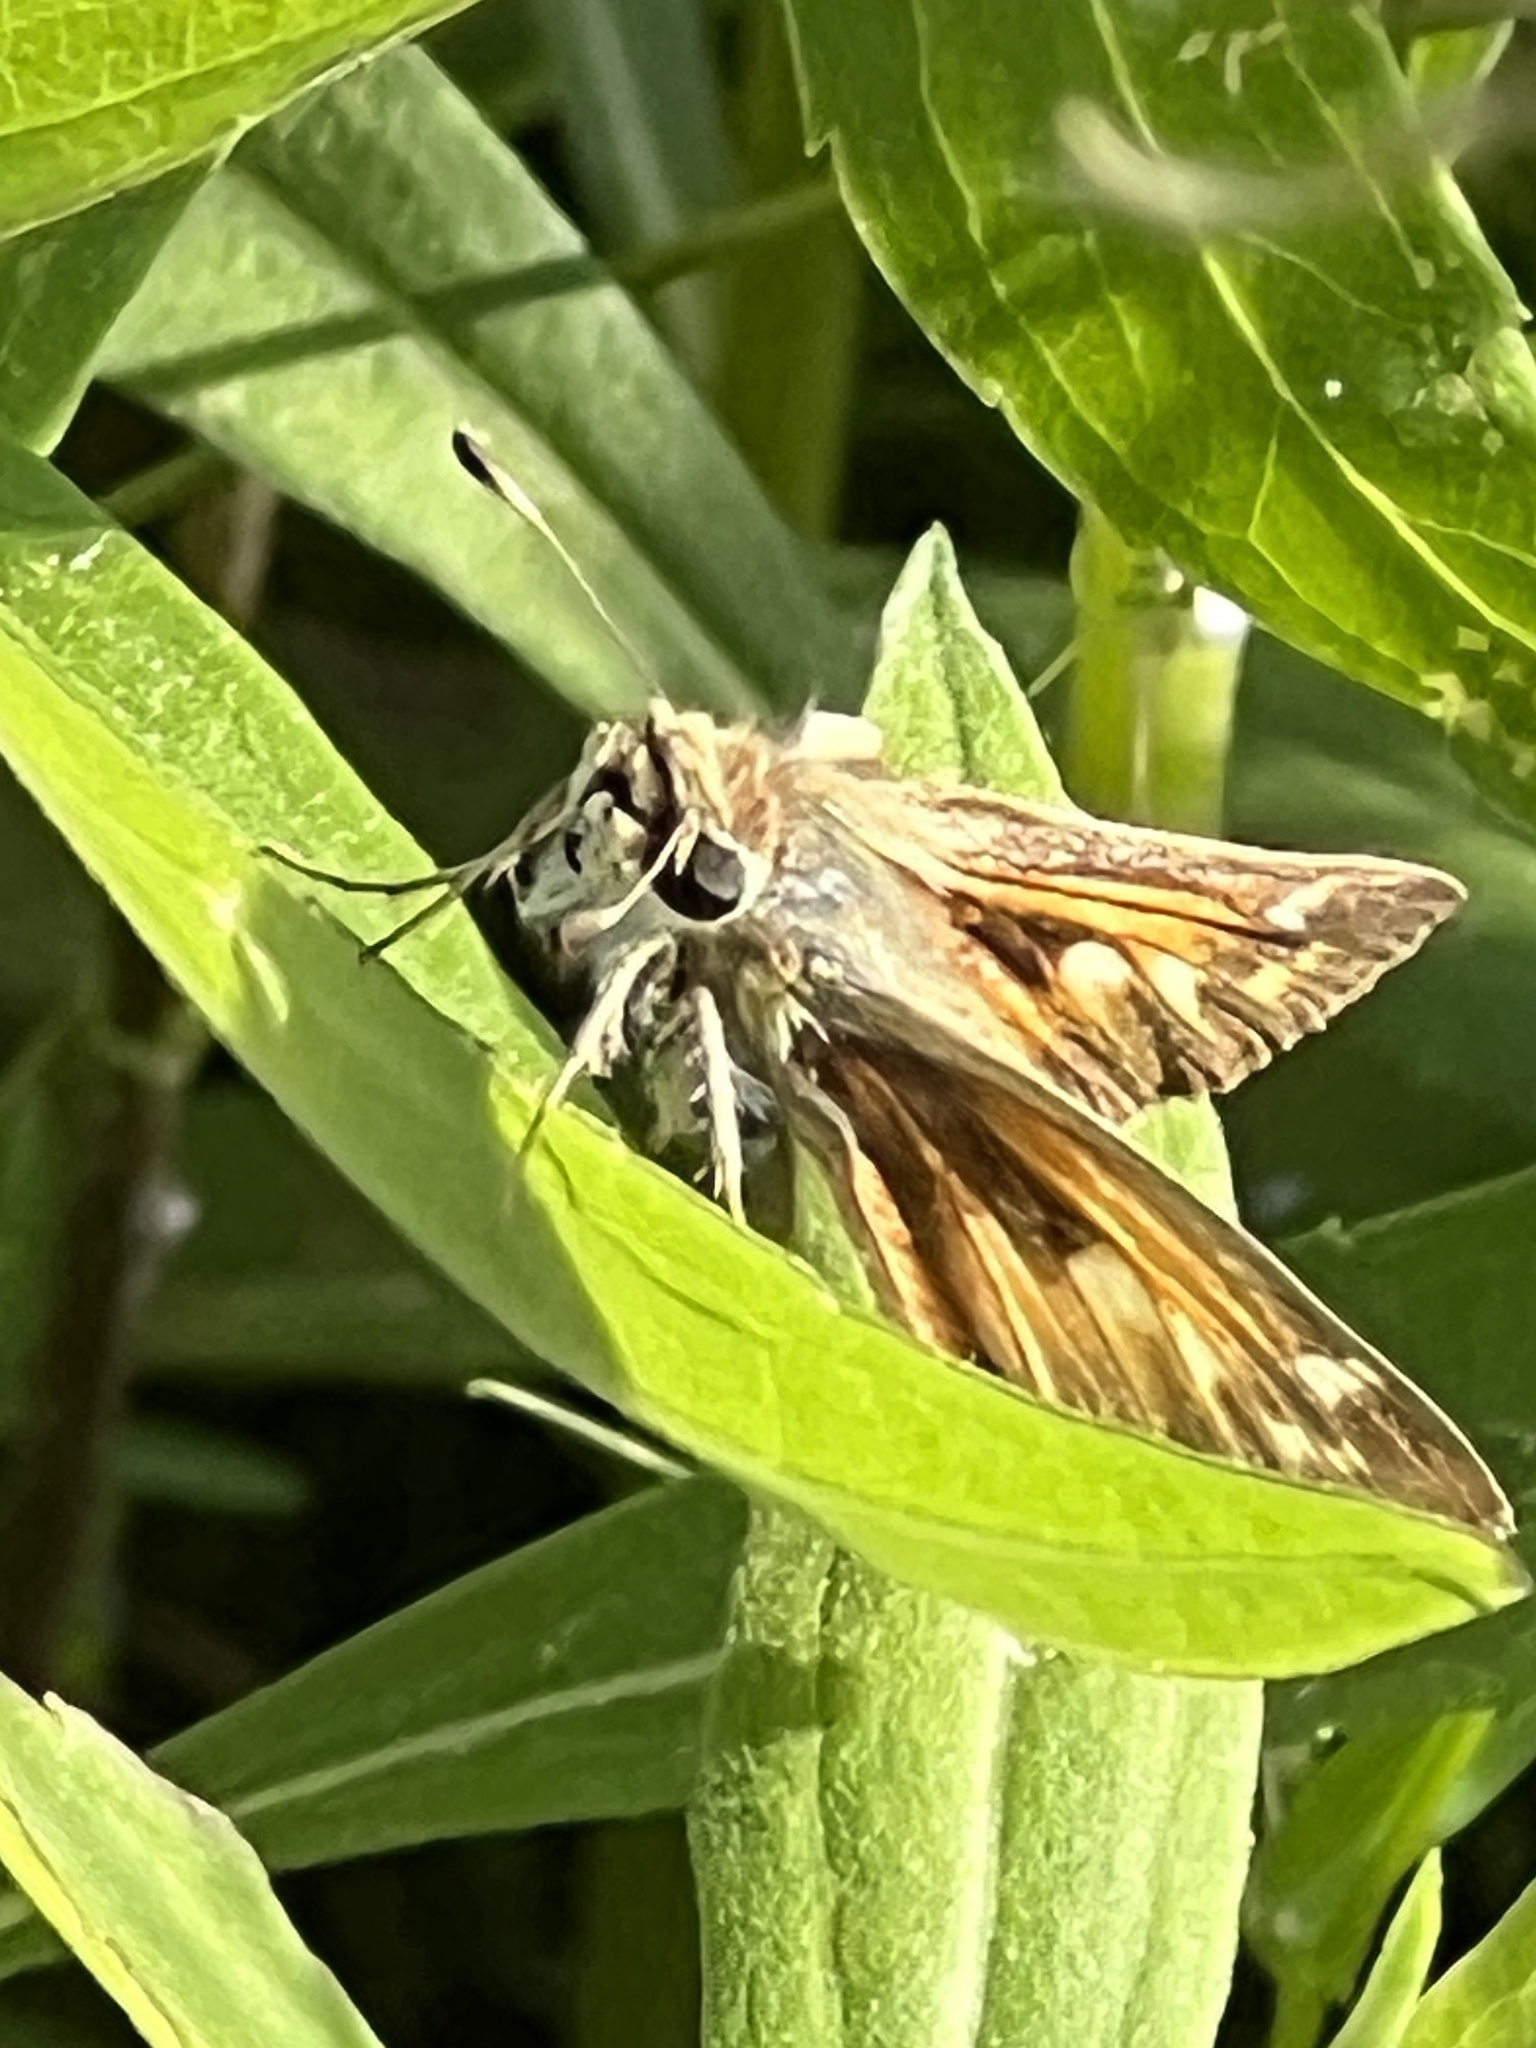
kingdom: Animalia
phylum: Arthropoda
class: Insecta
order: Lepidoptera
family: Hesperiidae
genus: Atalopedes
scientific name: Atalopedes
